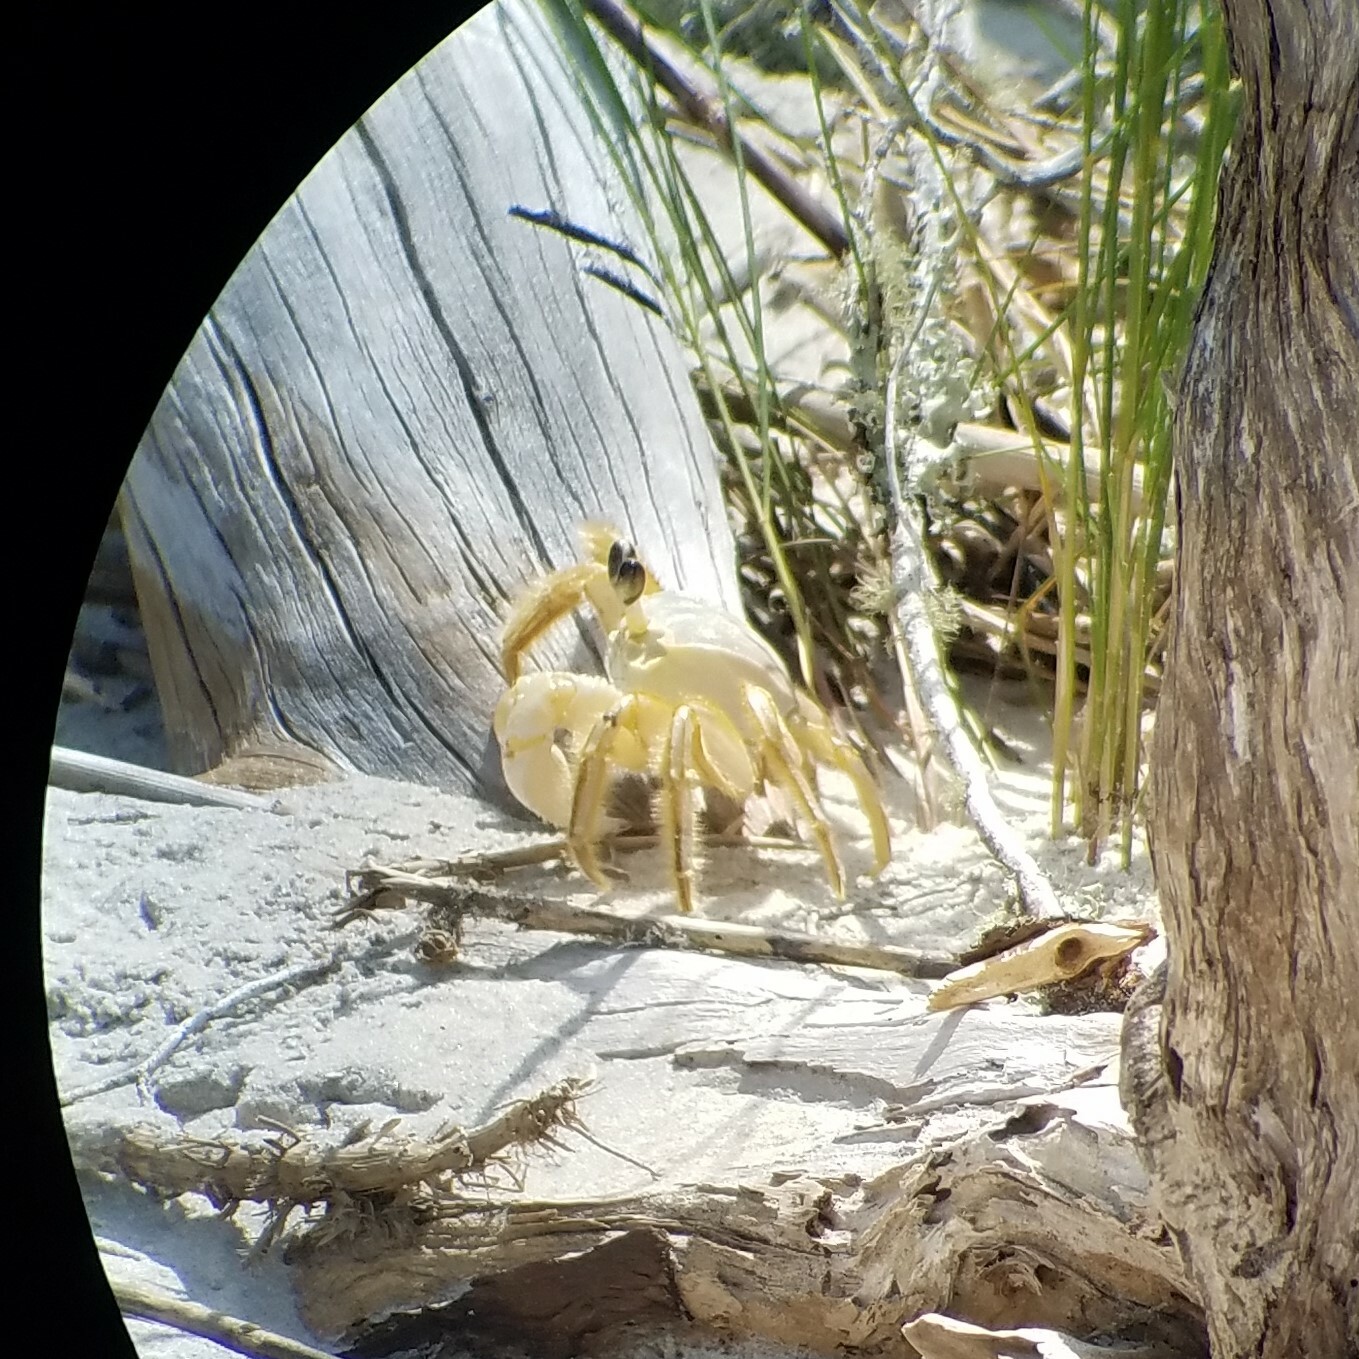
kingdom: Animalia
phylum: Arthropoda
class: Malacostraca
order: Decapoda
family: Ocypodidae
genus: Ocypode
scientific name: Ocypode quadrata
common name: Ghost crab
